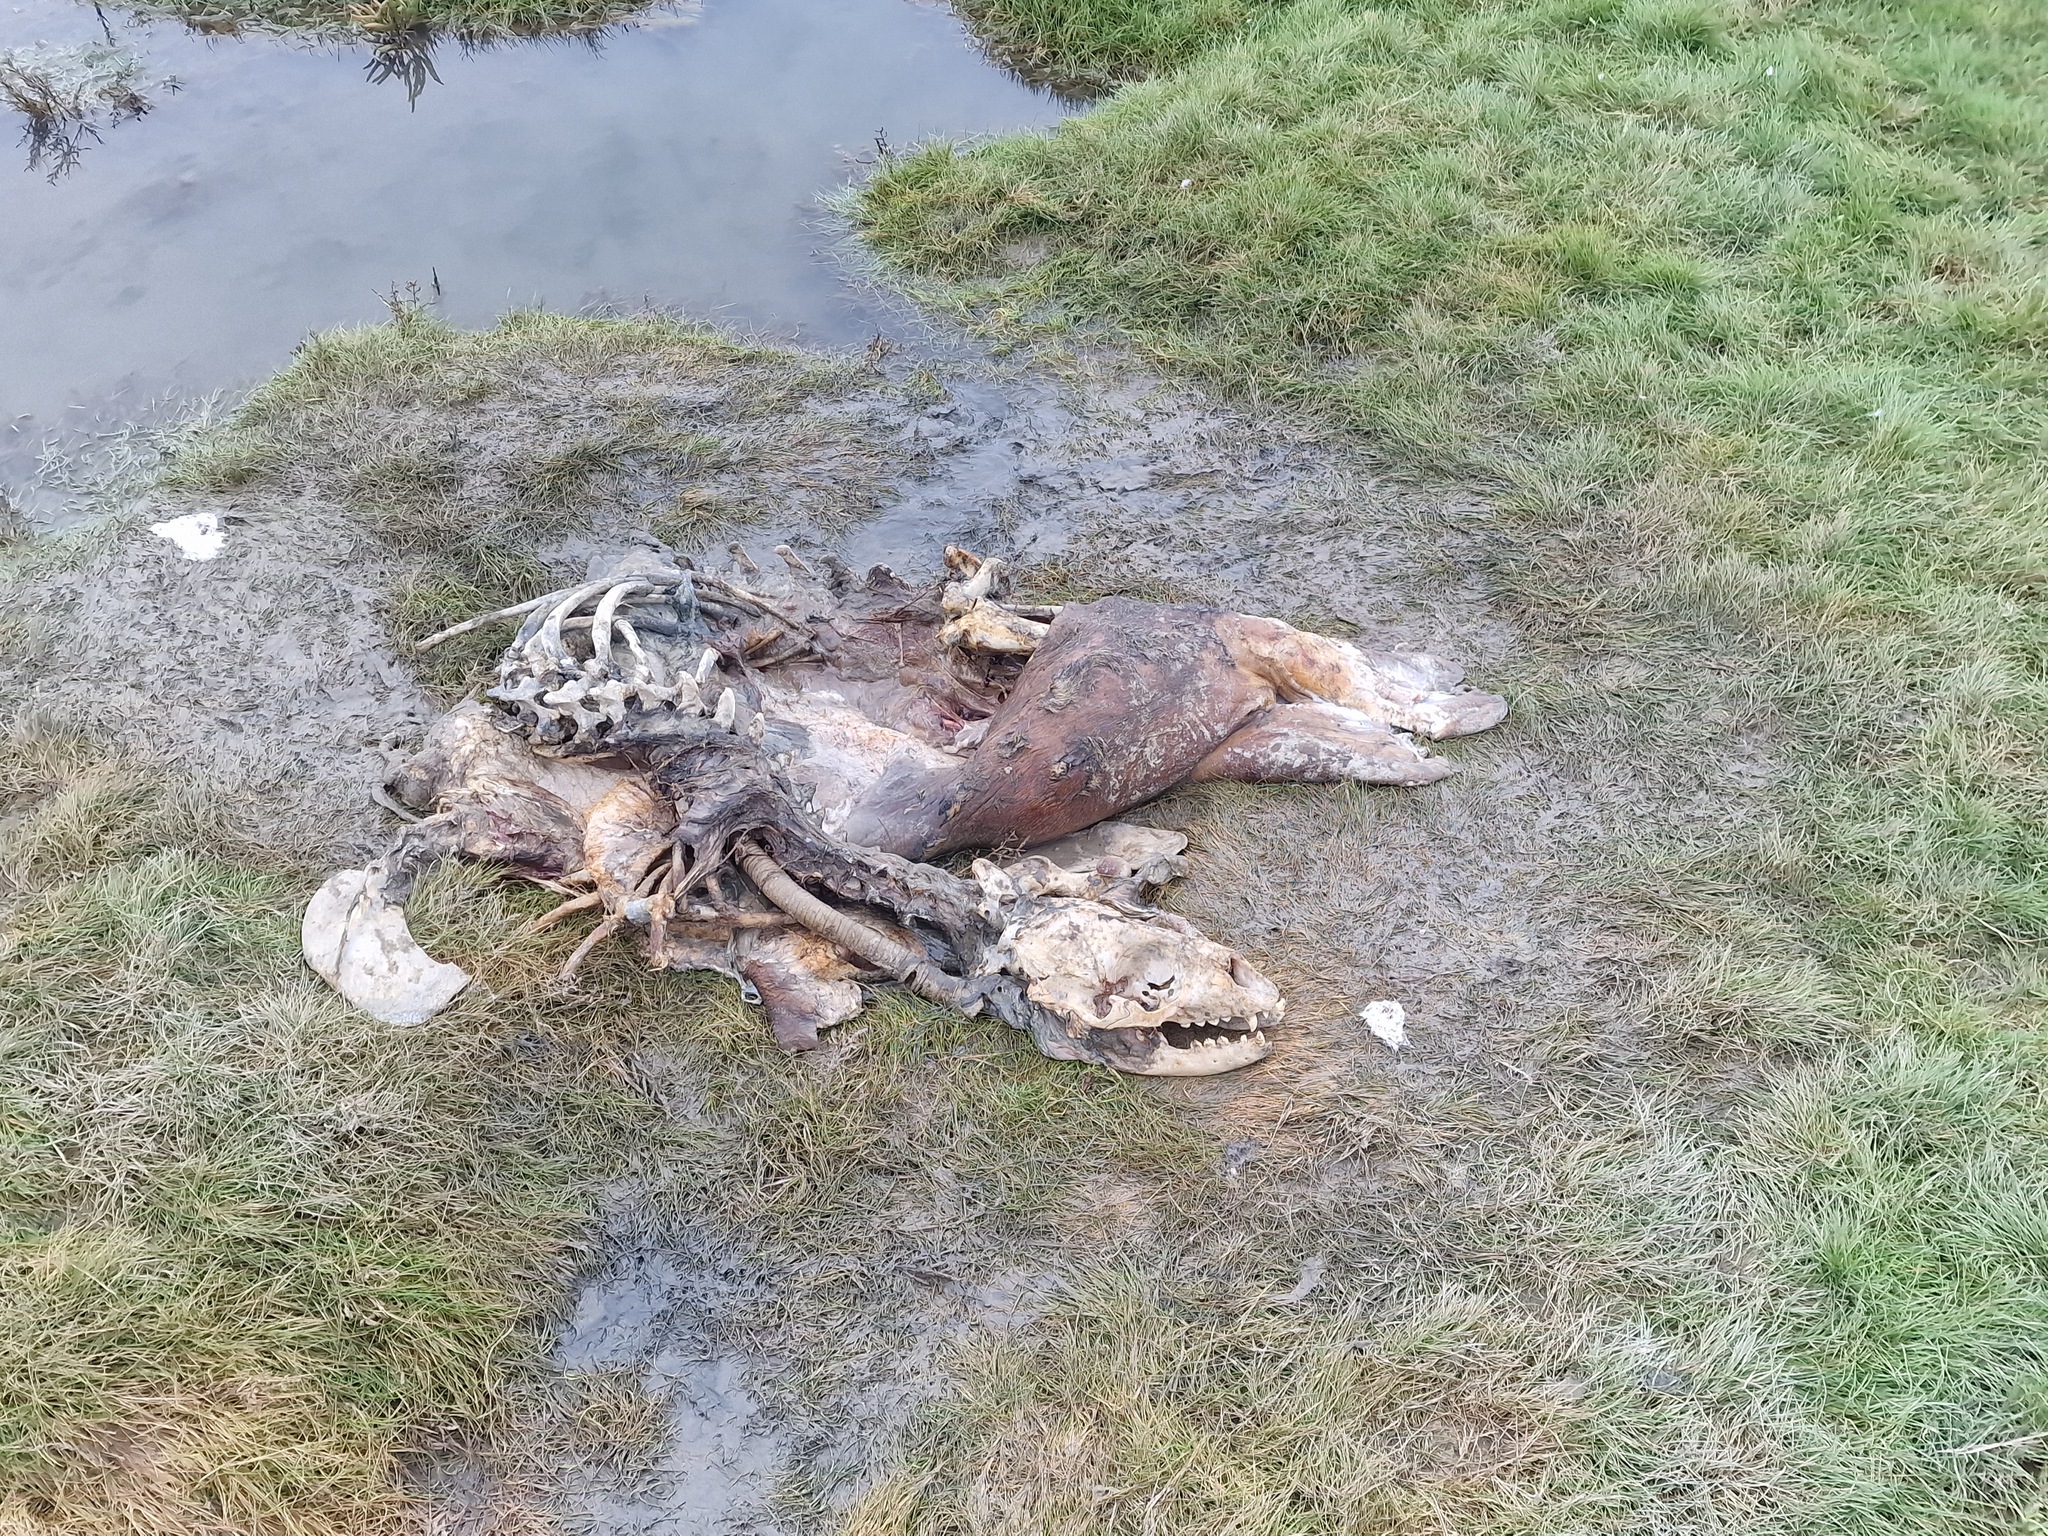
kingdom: Animalia
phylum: Chordata
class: Mammalia
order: Carnivora
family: Phocidae
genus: Phoca
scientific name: Phoca vitulina
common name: Harbor seal
